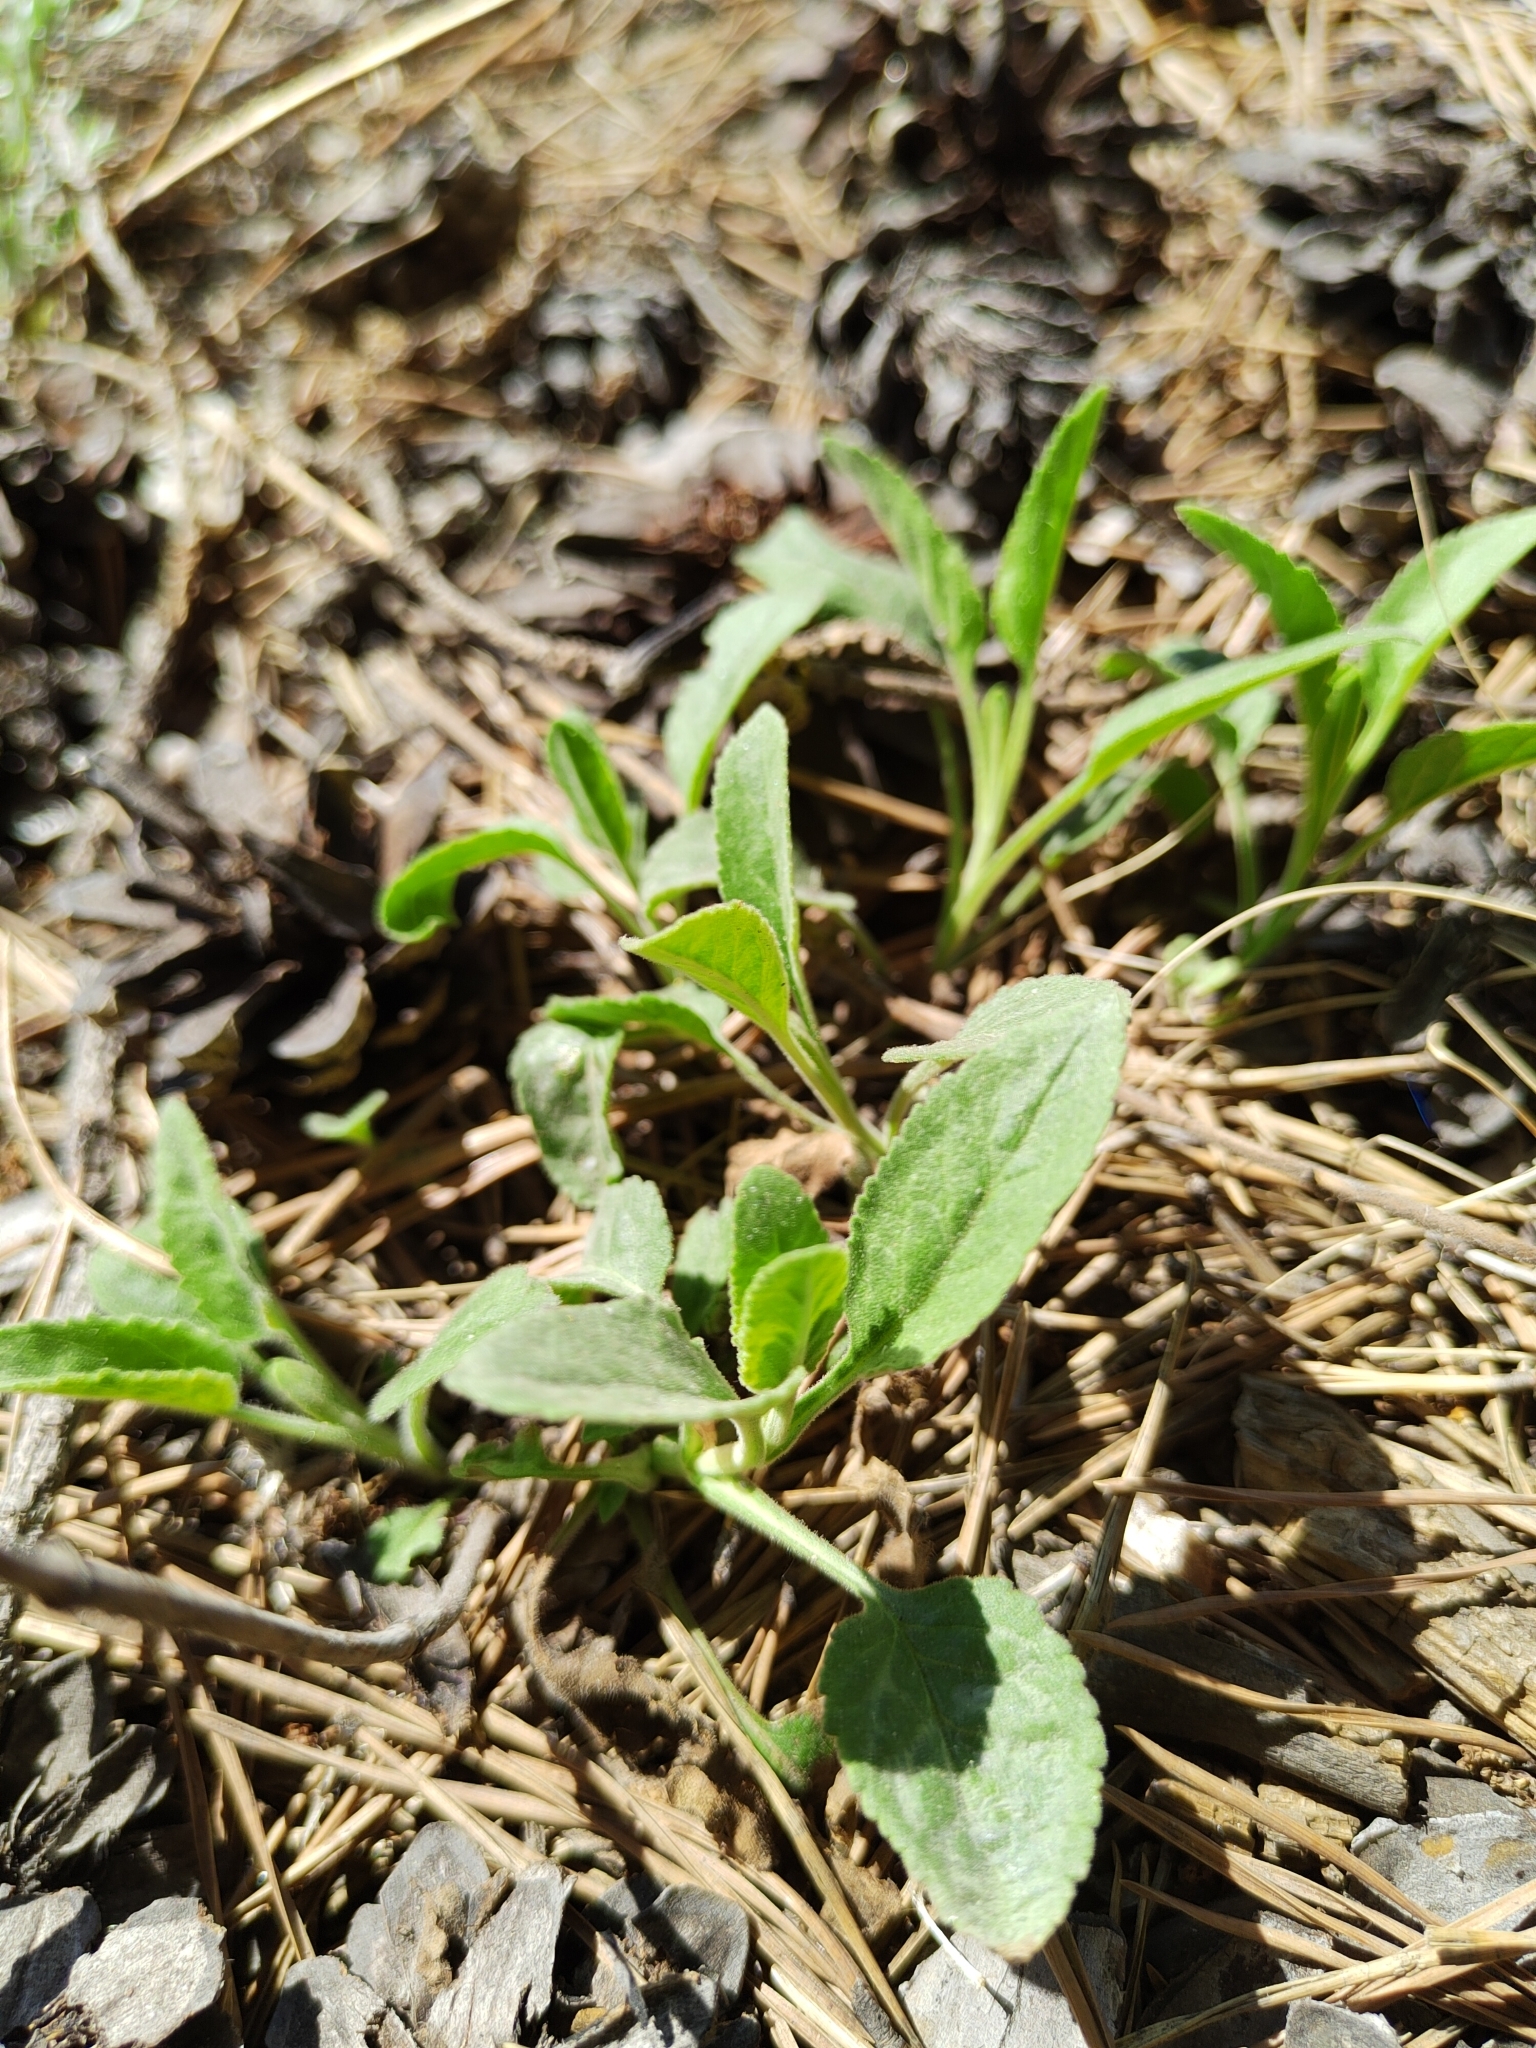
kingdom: Plantae
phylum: Tracheophyta
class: Magnoliopsida
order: Lamiales
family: Plantaginaceae
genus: Veronica
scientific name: Veronica spicata
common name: Spiked speedwell
